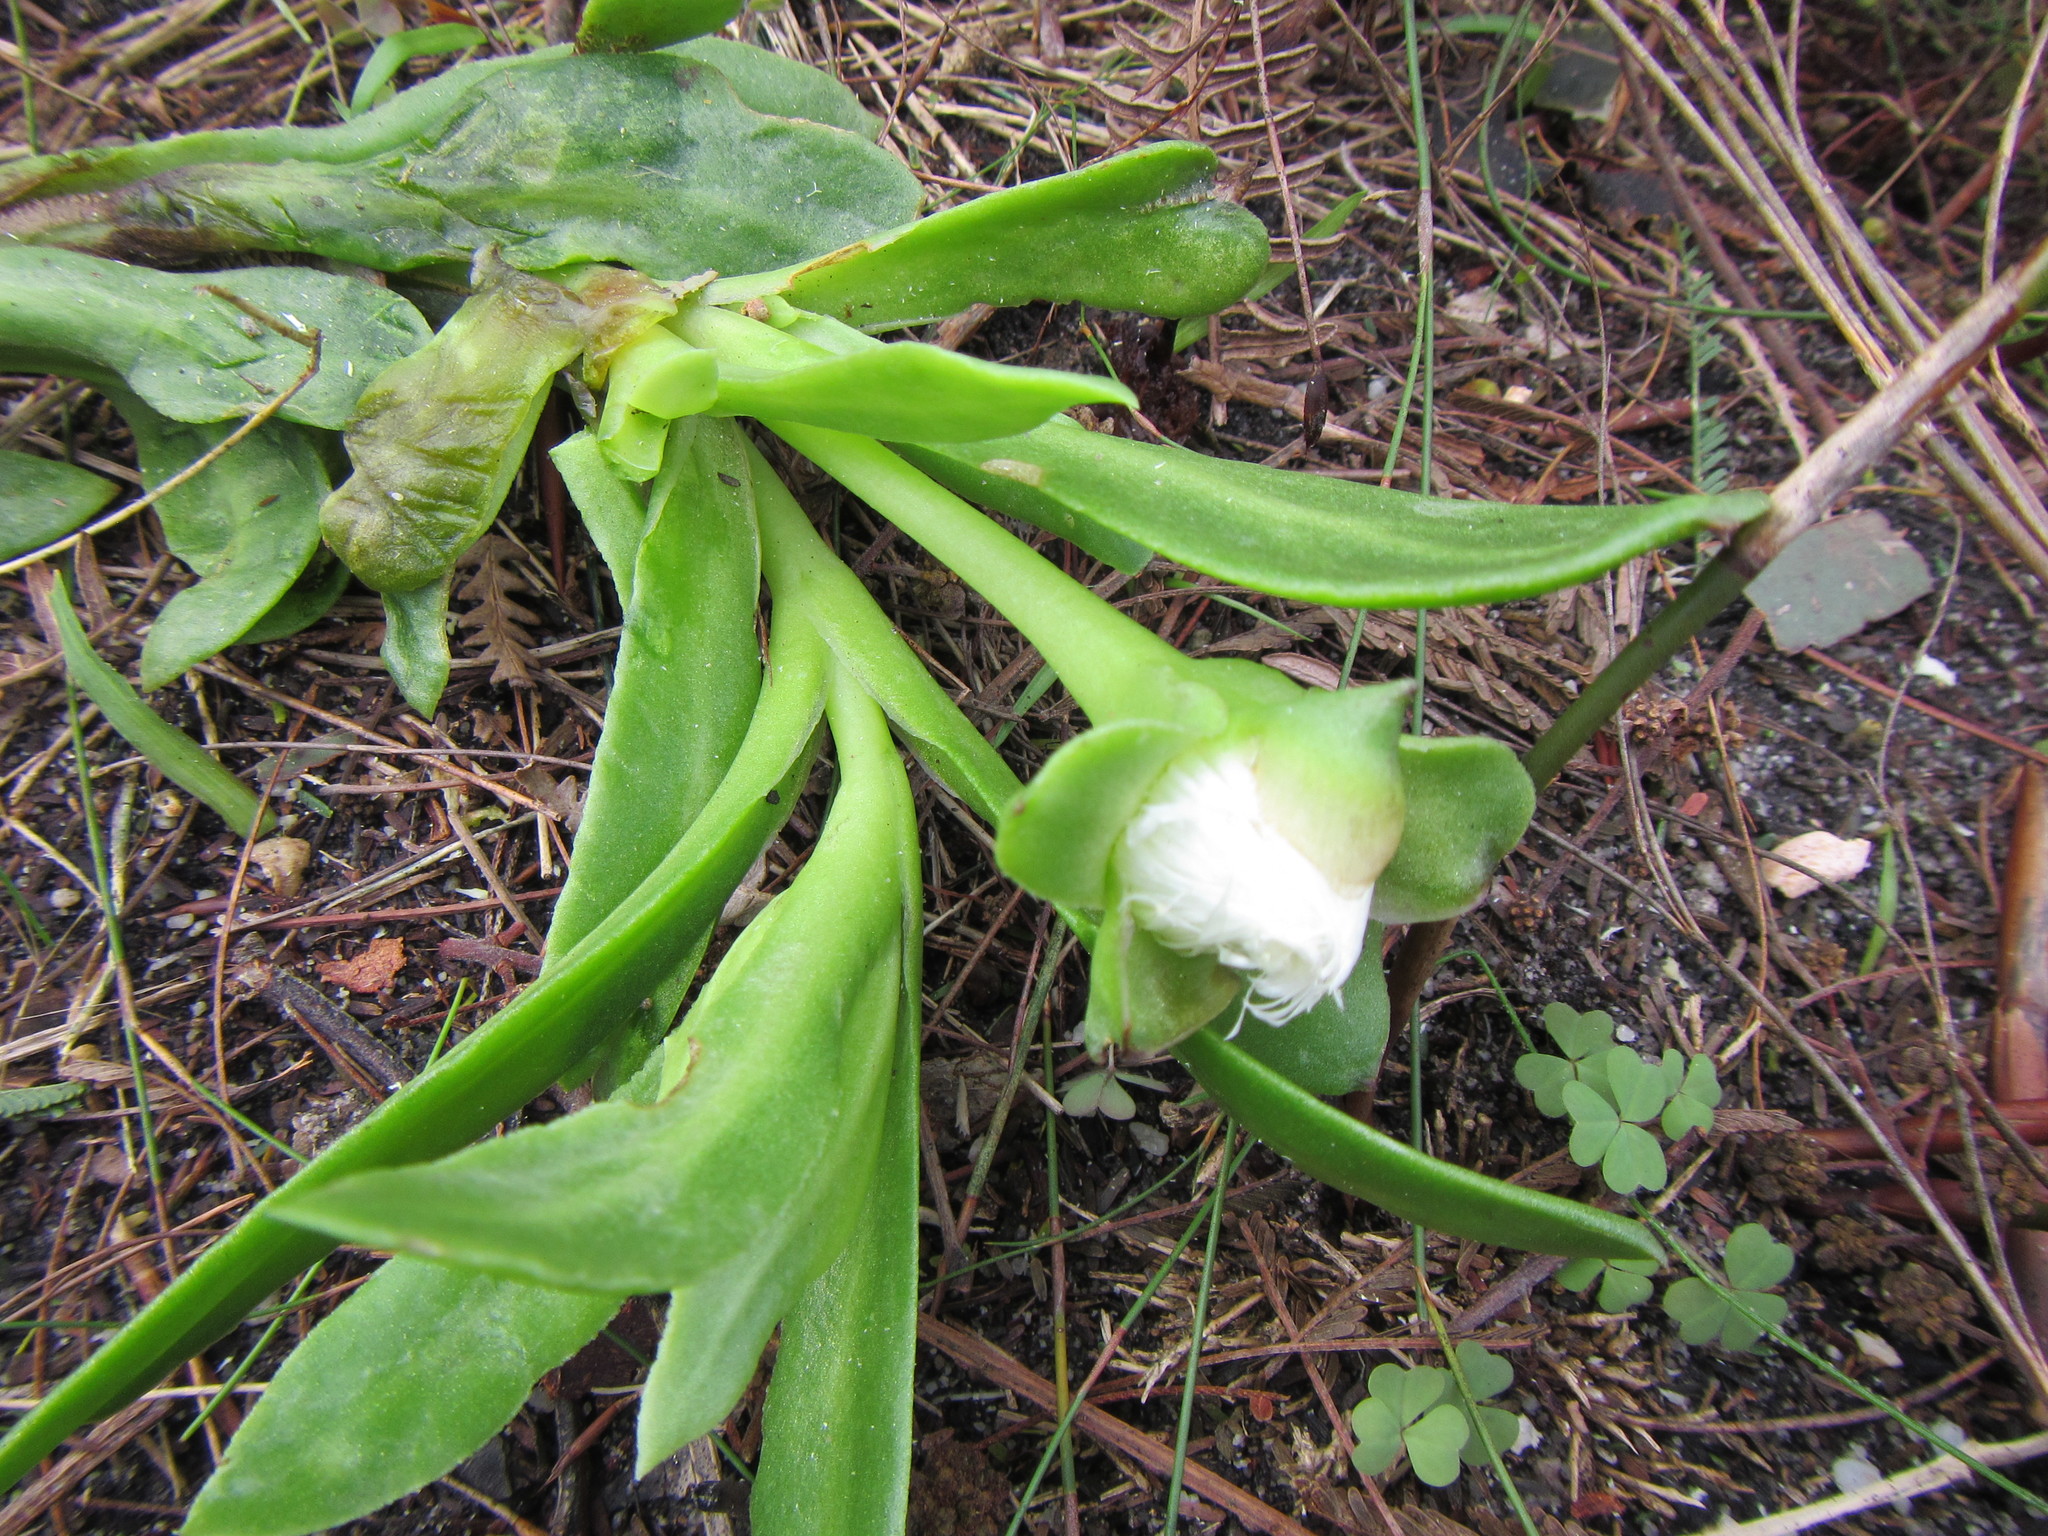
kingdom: Plantae
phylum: Tracheophyta
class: Magnoliopsida
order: Caryophyllales
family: Aizoaceae
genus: Skiatophytum
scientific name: Skiatophytum tripolium
